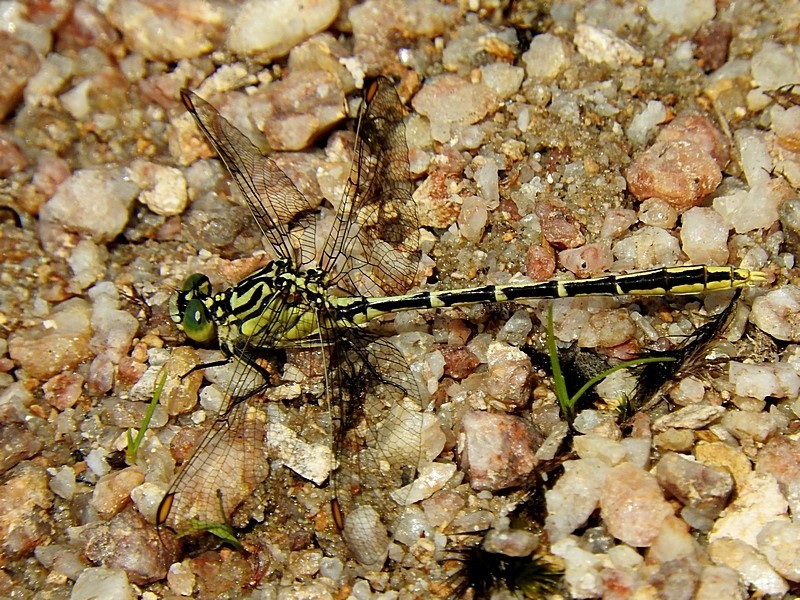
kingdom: Animalia
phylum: Arthropoda
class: Insecta
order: Odonata
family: Gomphidae
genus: Austrogomphus
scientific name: Austrogomphus guerini
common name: Yellow-striped hunter
